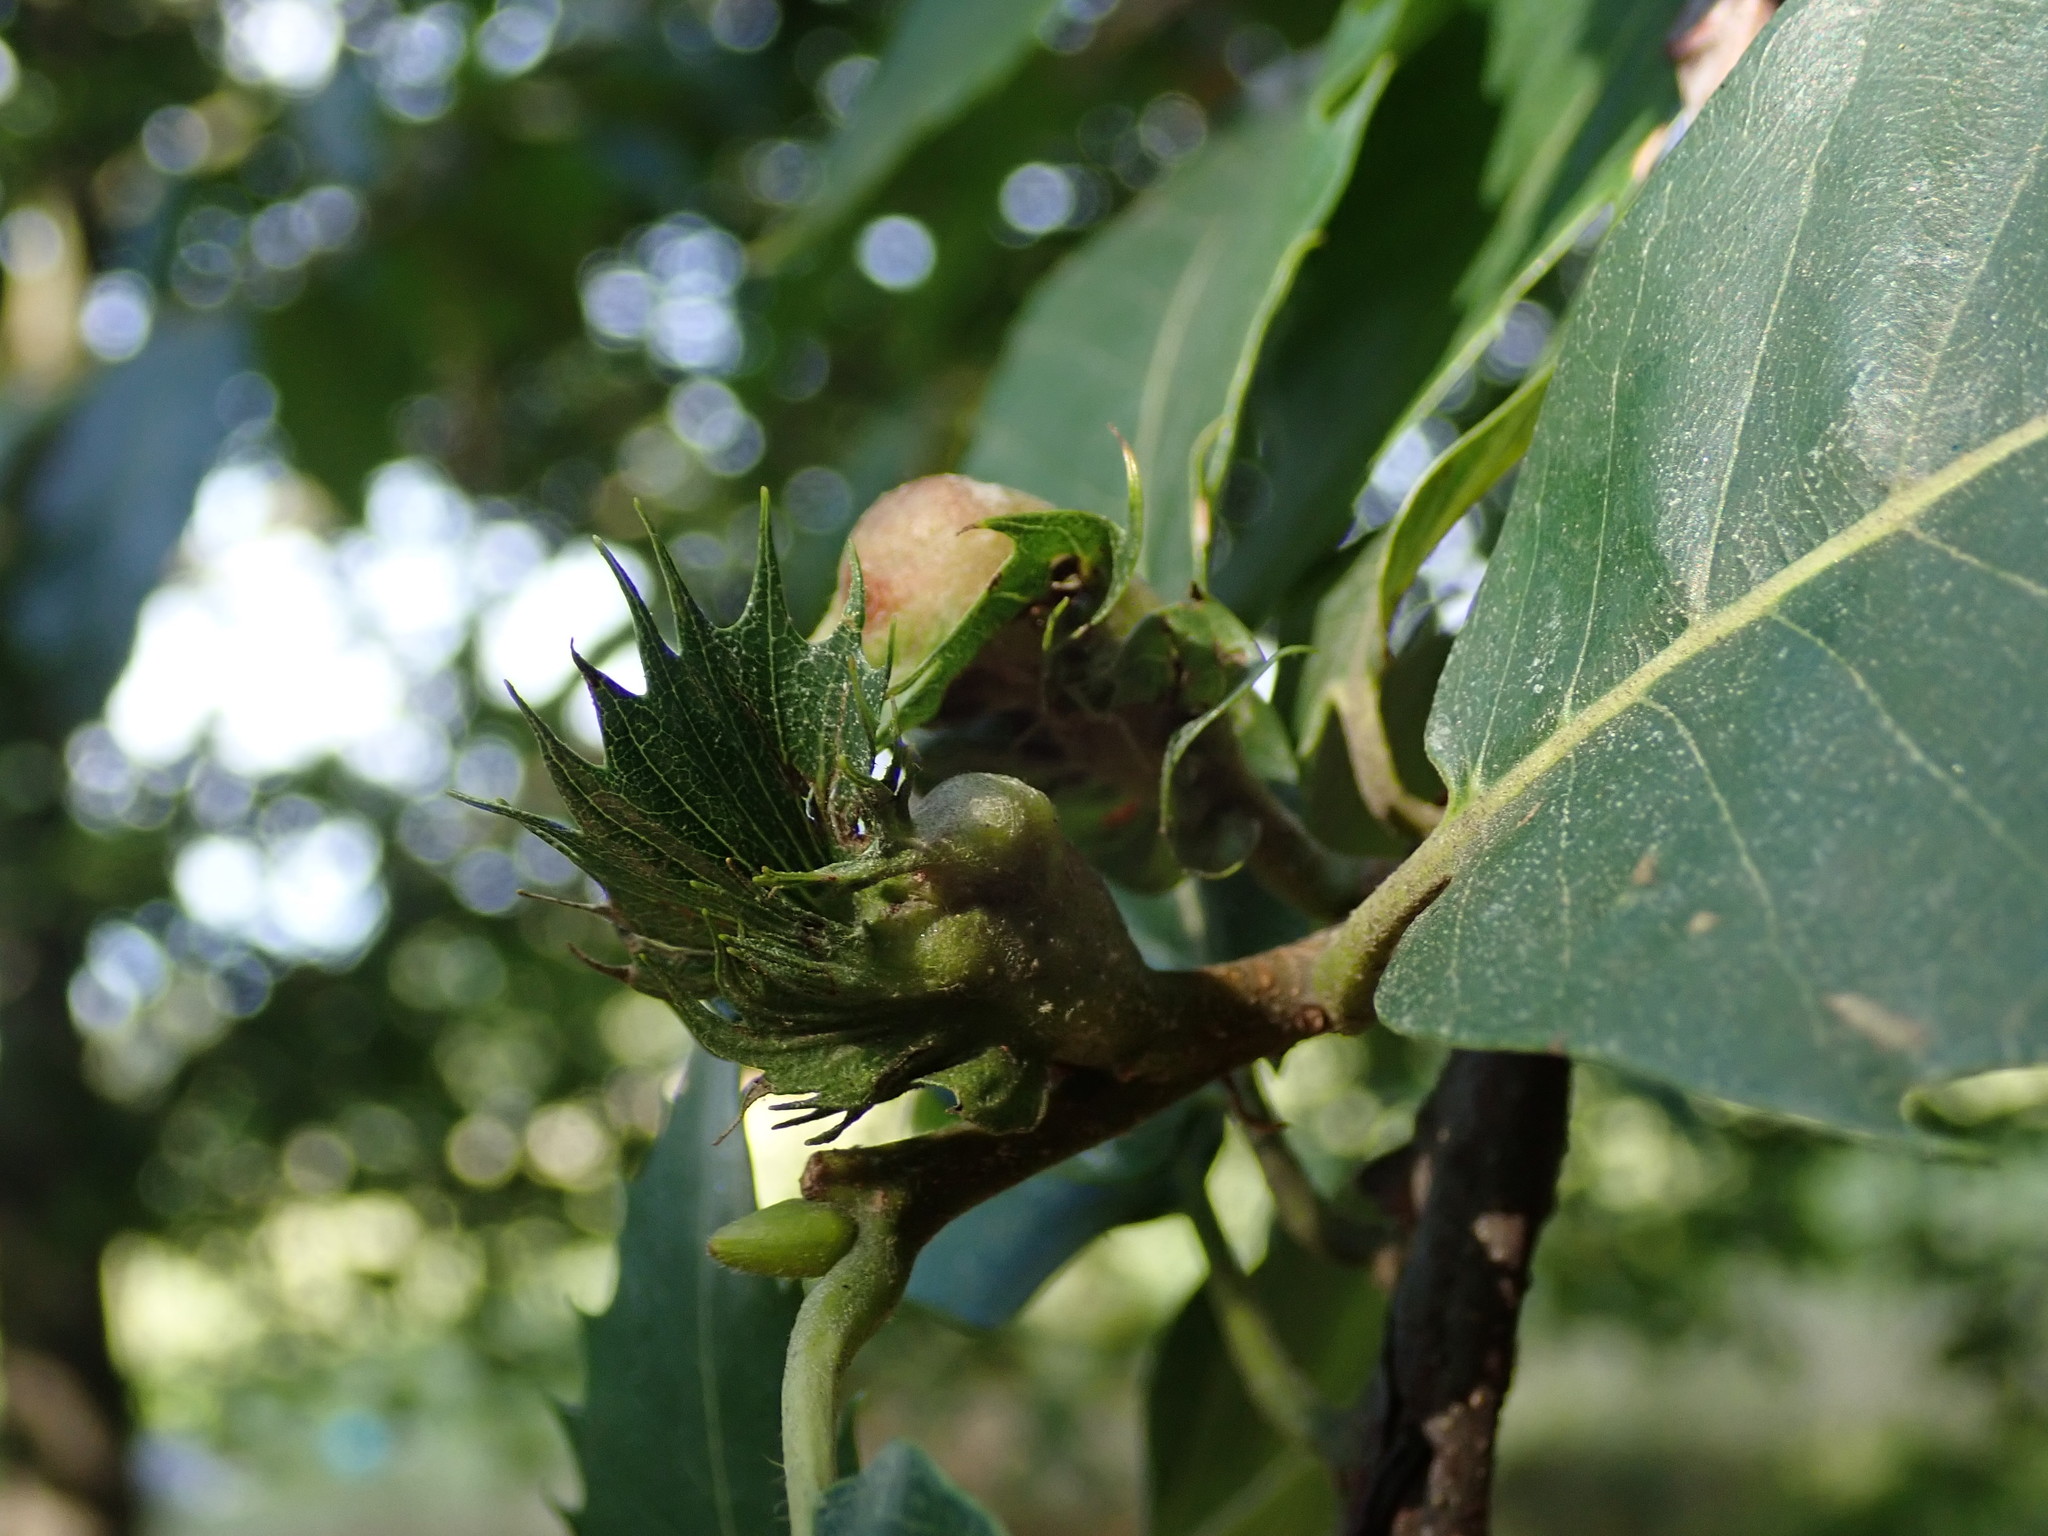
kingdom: Animalia
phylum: Arthropoda
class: Insecta
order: Hymenoptera
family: Cynipidae
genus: Dryocosmus
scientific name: Dryocosmus kuriphilus
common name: Asian chestnut gall wasp
